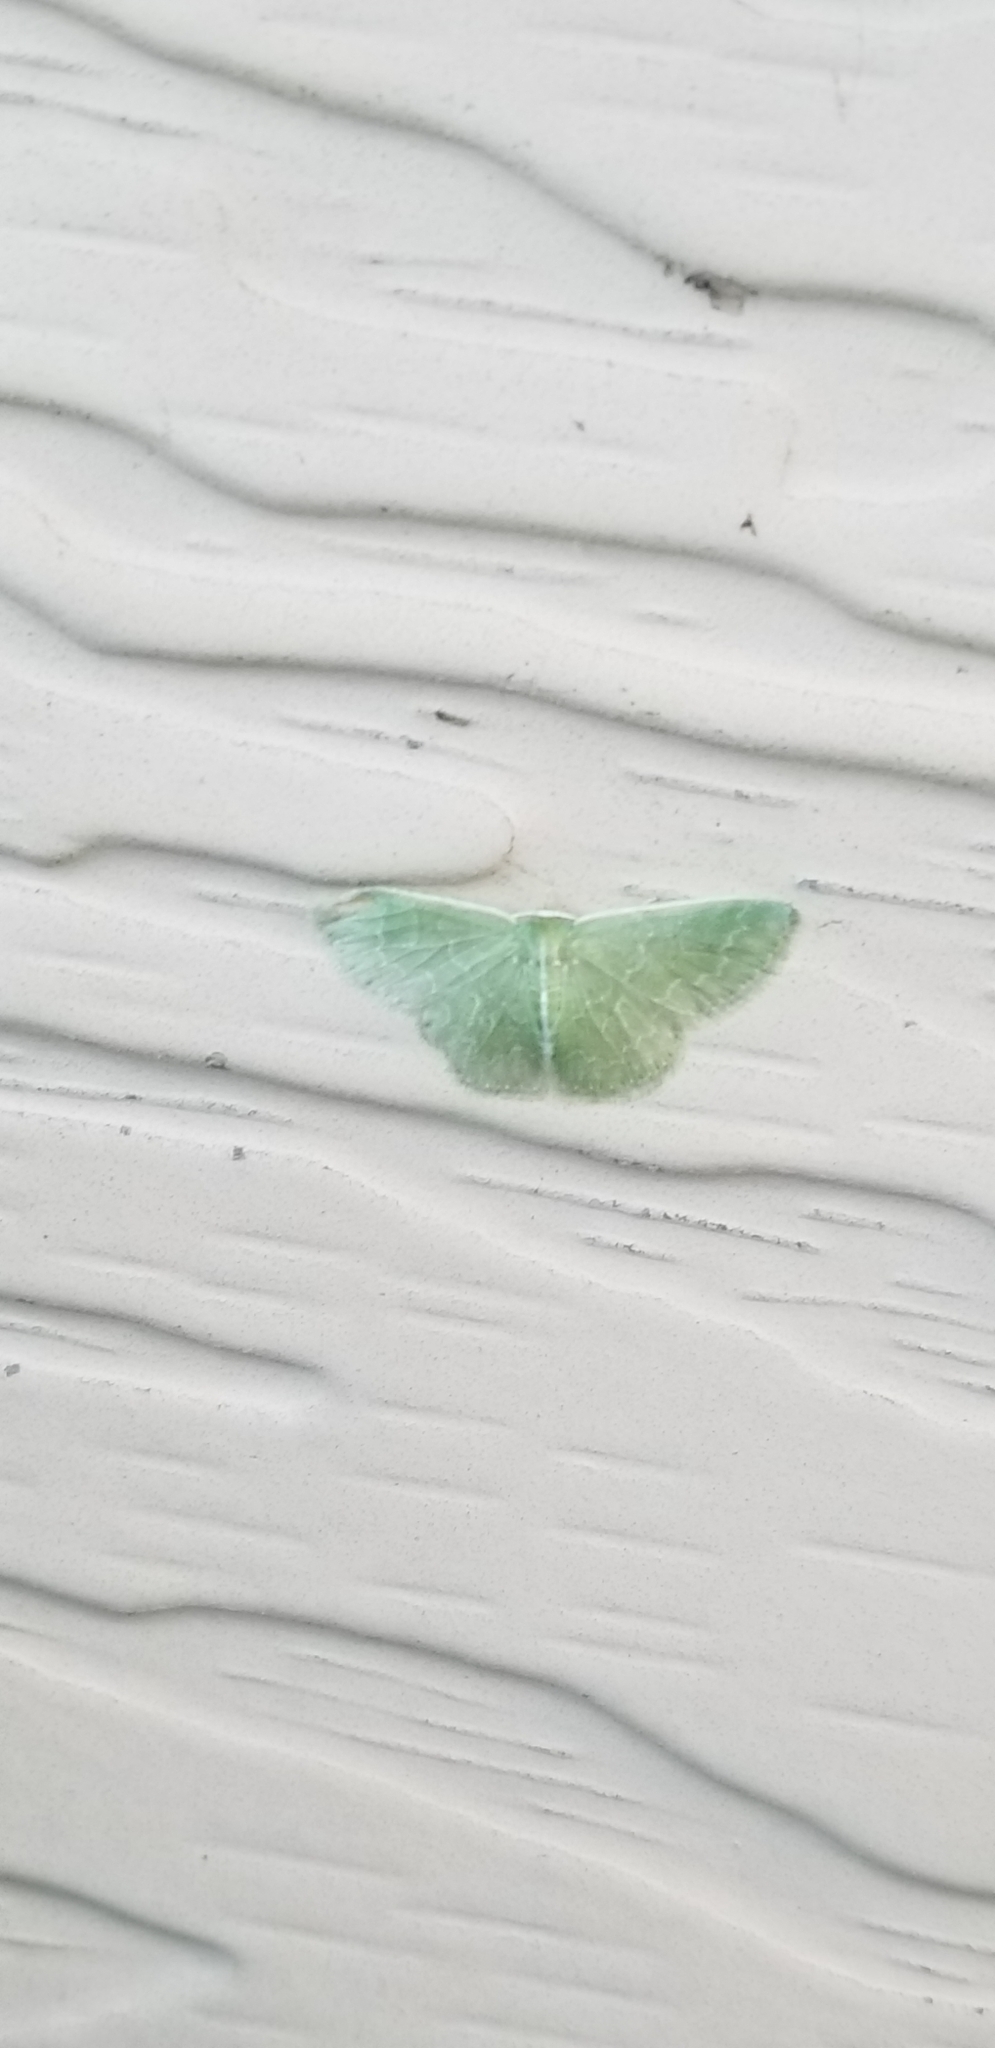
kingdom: Animalia
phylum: Arthropoda
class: Insecta
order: Lepidoptera
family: Geometridae
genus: Synchlora
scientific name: Synchlora frondaria
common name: Southern emerald
